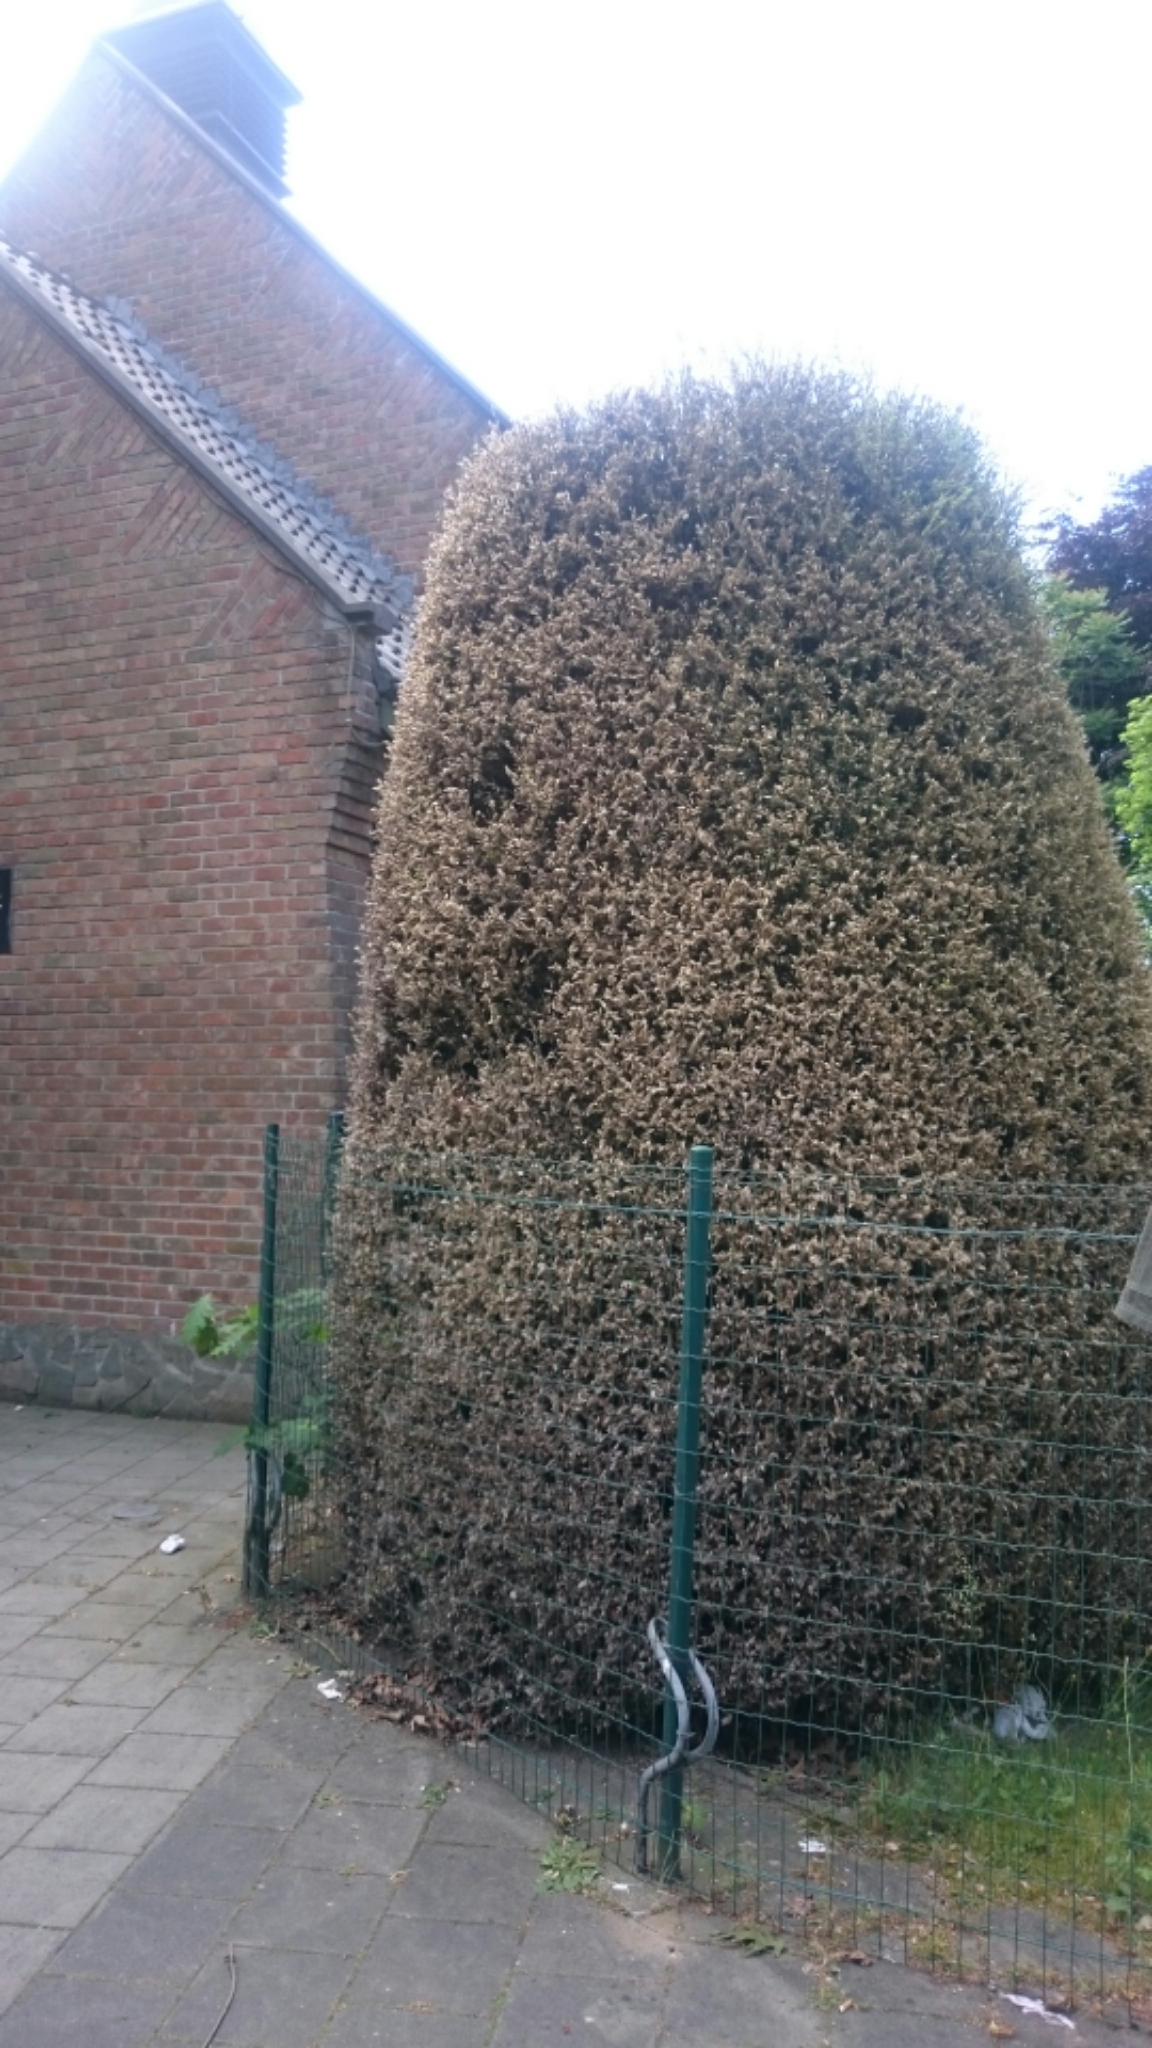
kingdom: Animalia
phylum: Arthropoda
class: Insecta
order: Lepidoptera
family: Crambidae
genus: Cydalima
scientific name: Cydalima perspectalis
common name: Box tree moth
